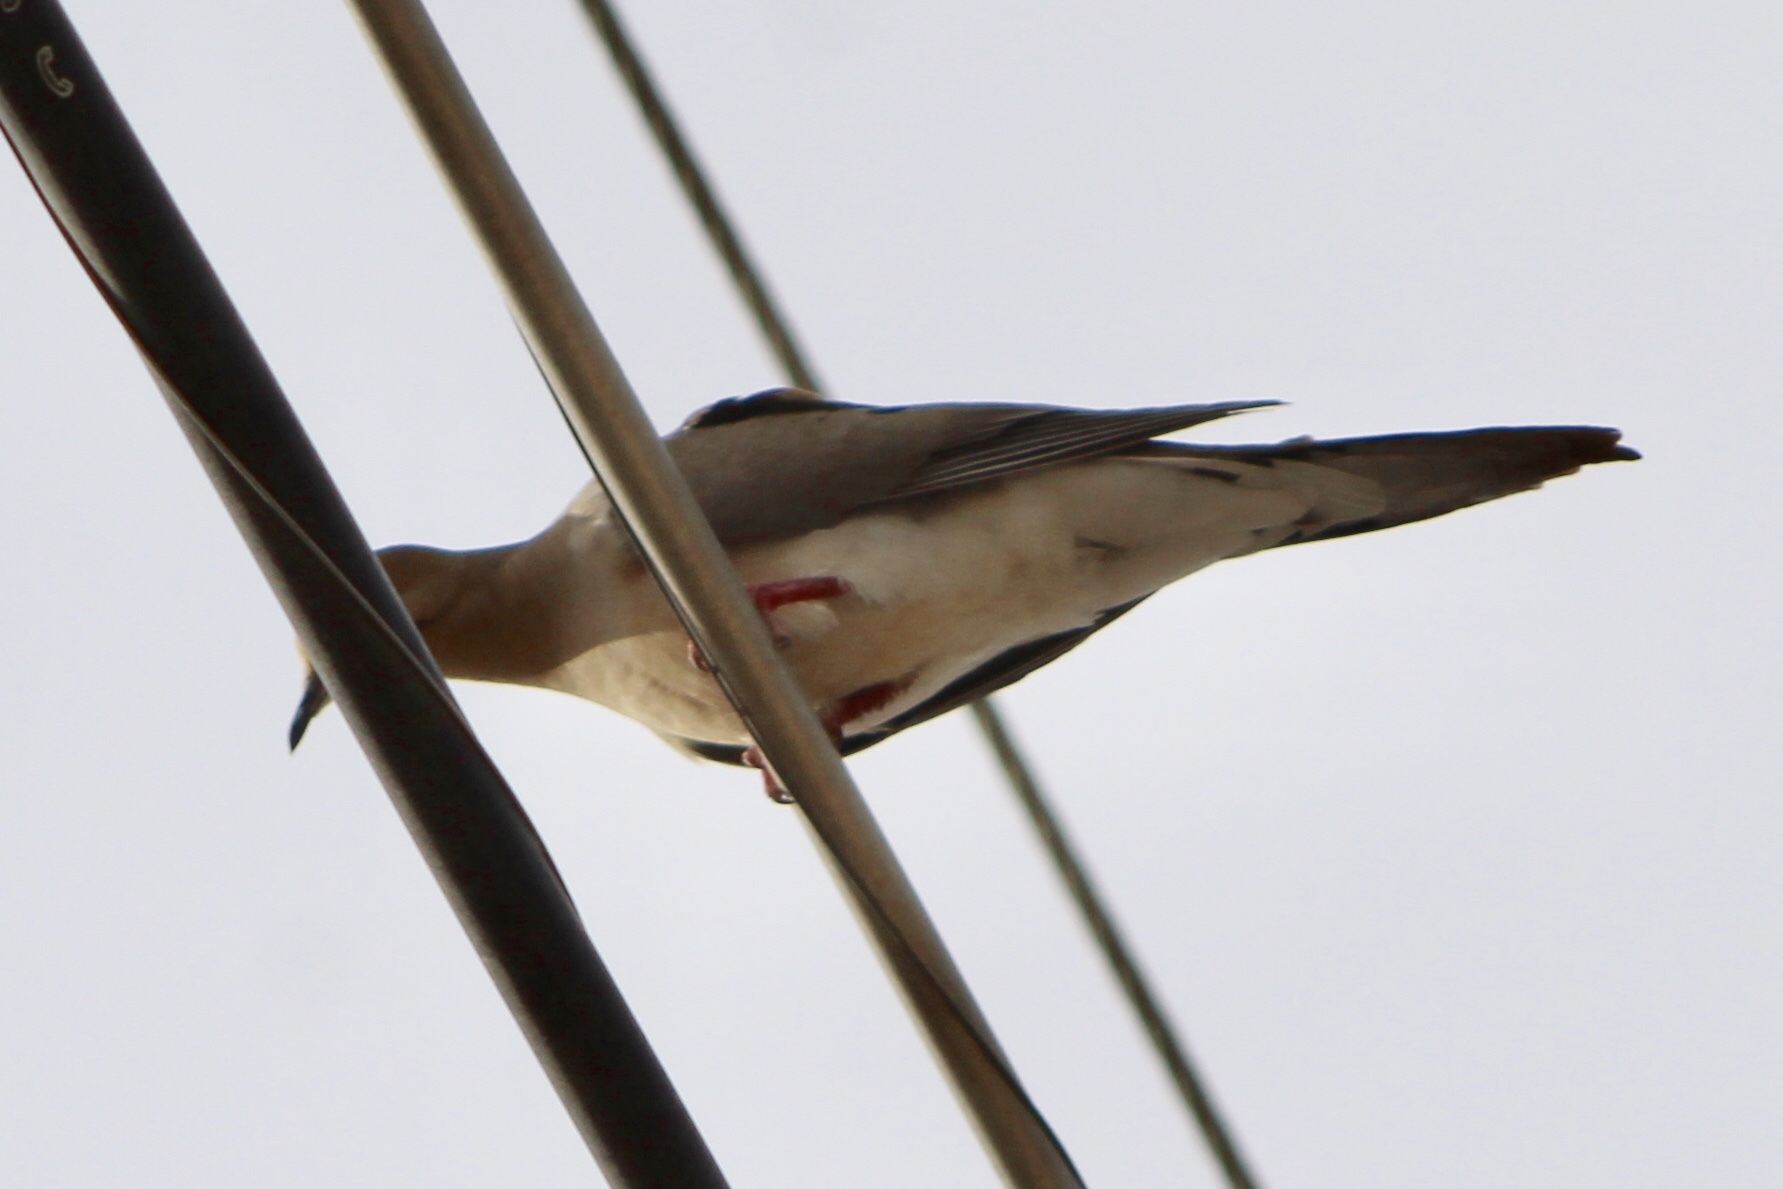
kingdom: Animalia
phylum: Chordata
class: Aves
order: Columbiformes
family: Columbidae
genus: Zenaida
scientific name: Zenaida macroura
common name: Mourning dove
